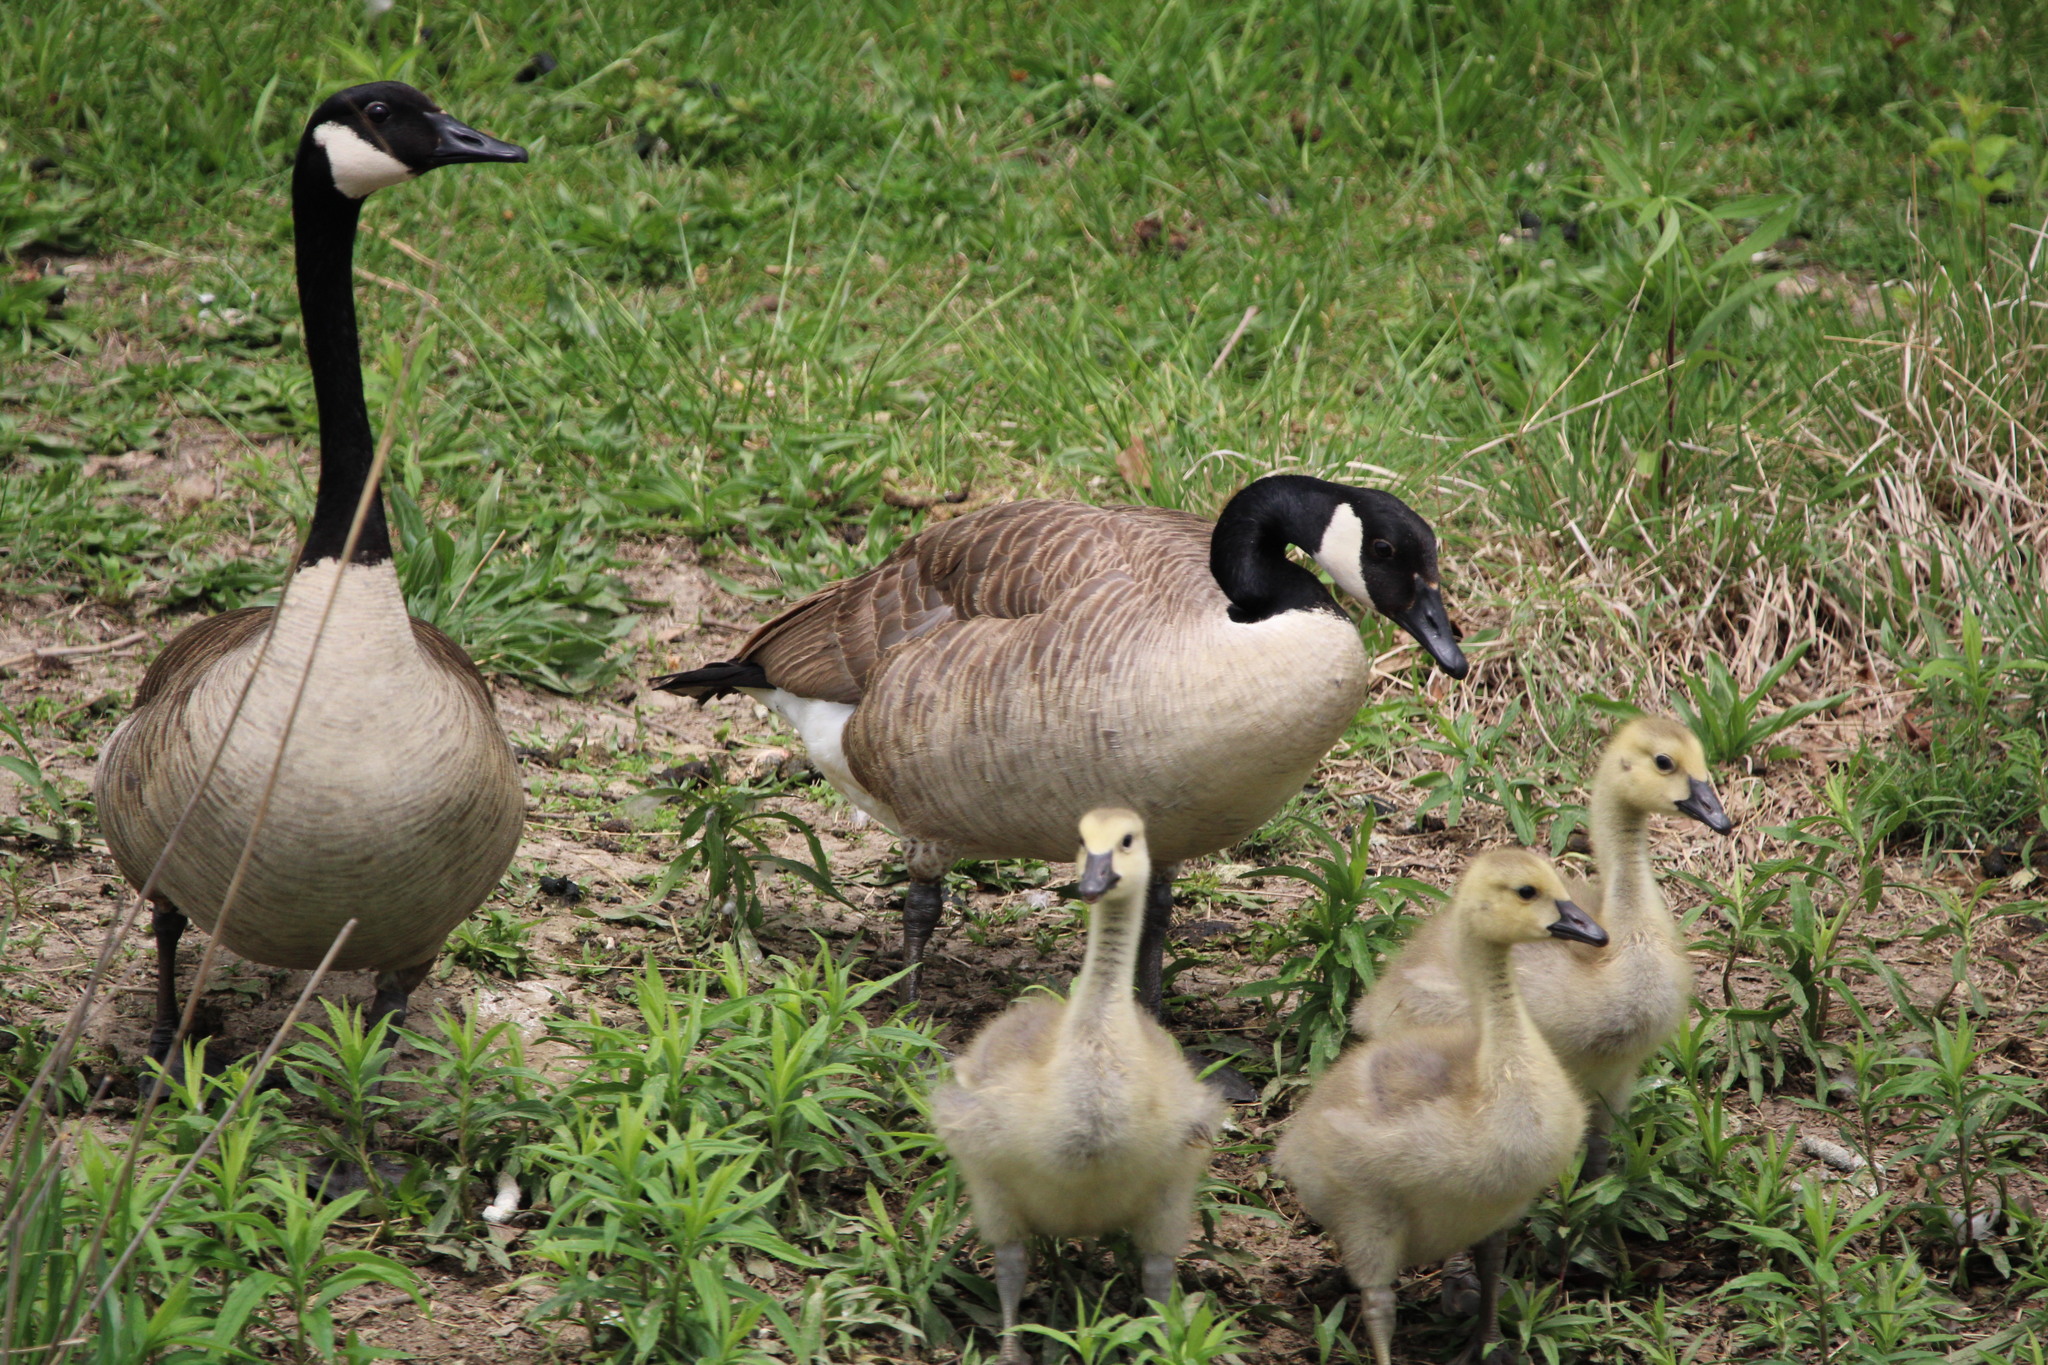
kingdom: Animalia
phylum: Chordata
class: Aves
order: Anseriformes
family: Anatidae
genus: Branta
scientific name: Branta canadensis
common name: Canada goose
